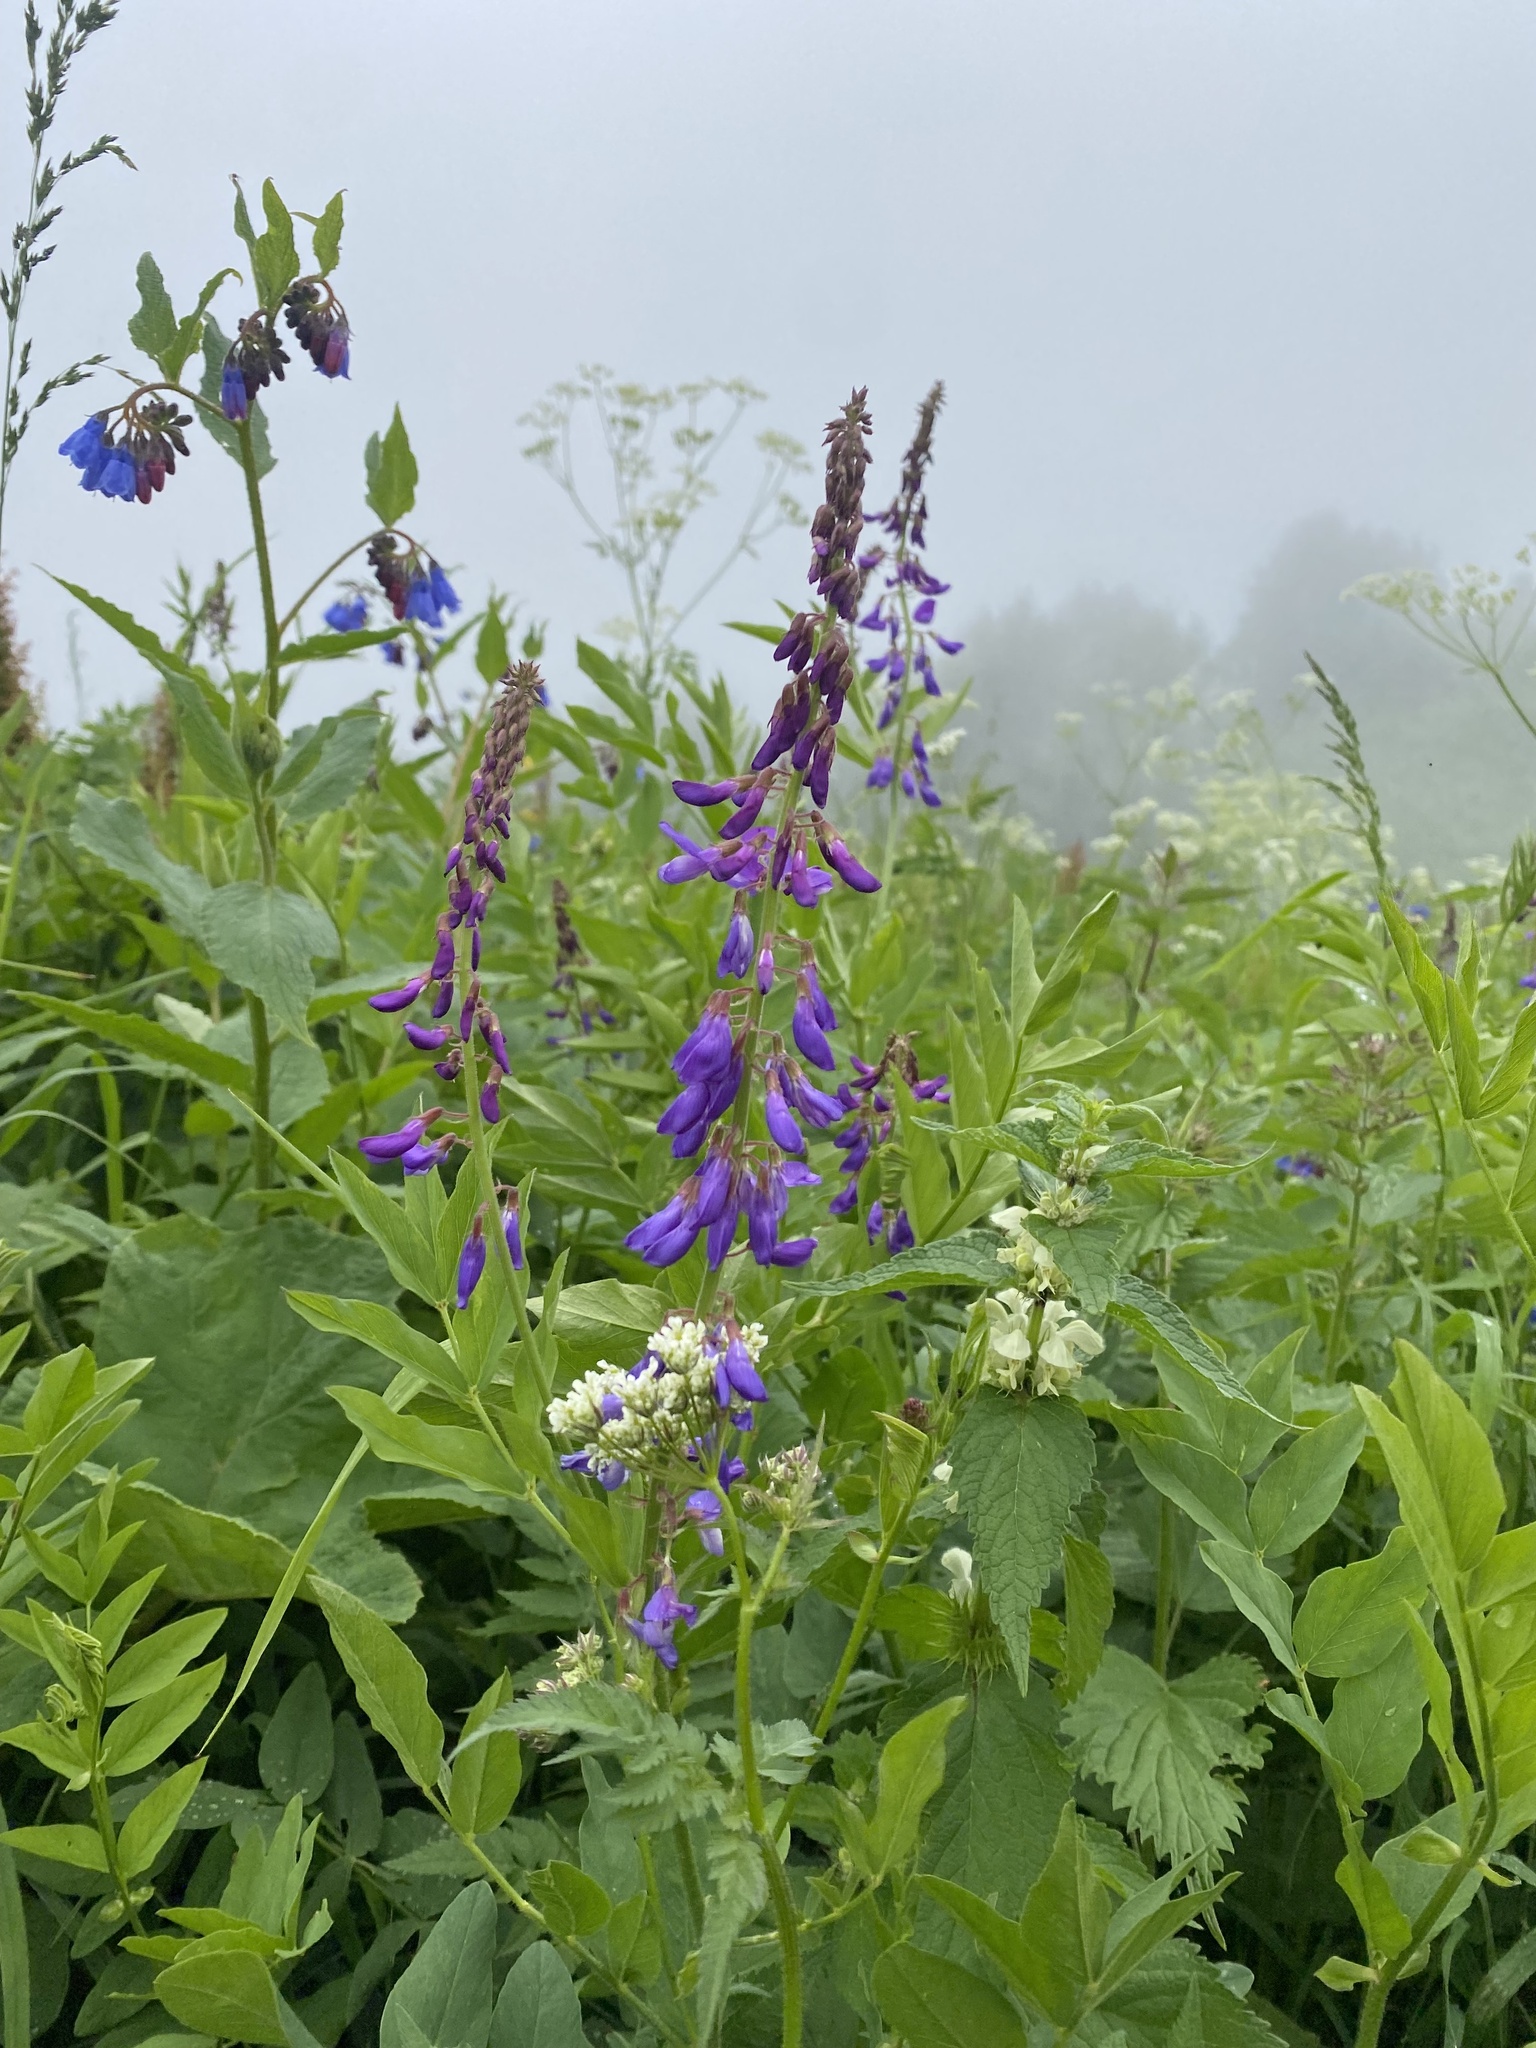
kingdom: Plantae
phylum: Tracheophyta
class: Magnoliopsida
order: Fabales
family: Fabaceae
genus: Galega
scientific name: Galega orientalis
